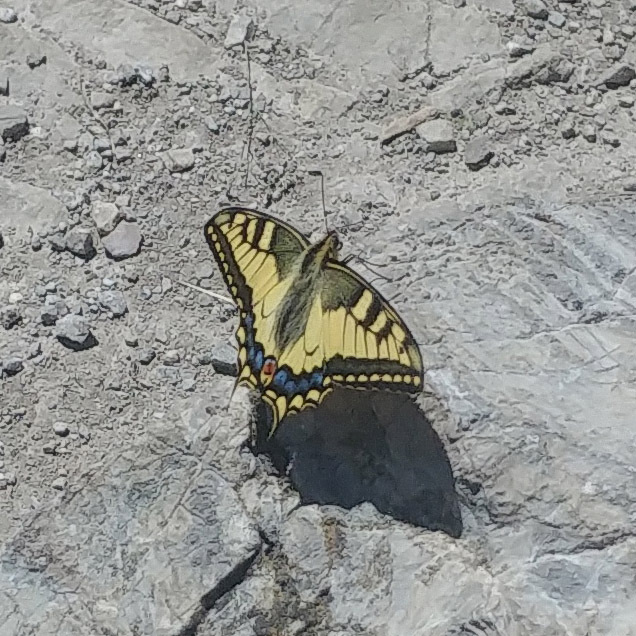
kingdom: Animalia
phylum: Arthropoda
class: Insecta
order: Lepidoptera
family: Papilionidae
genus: Papilio
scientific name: Papilio machaon
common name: Swallowtail
